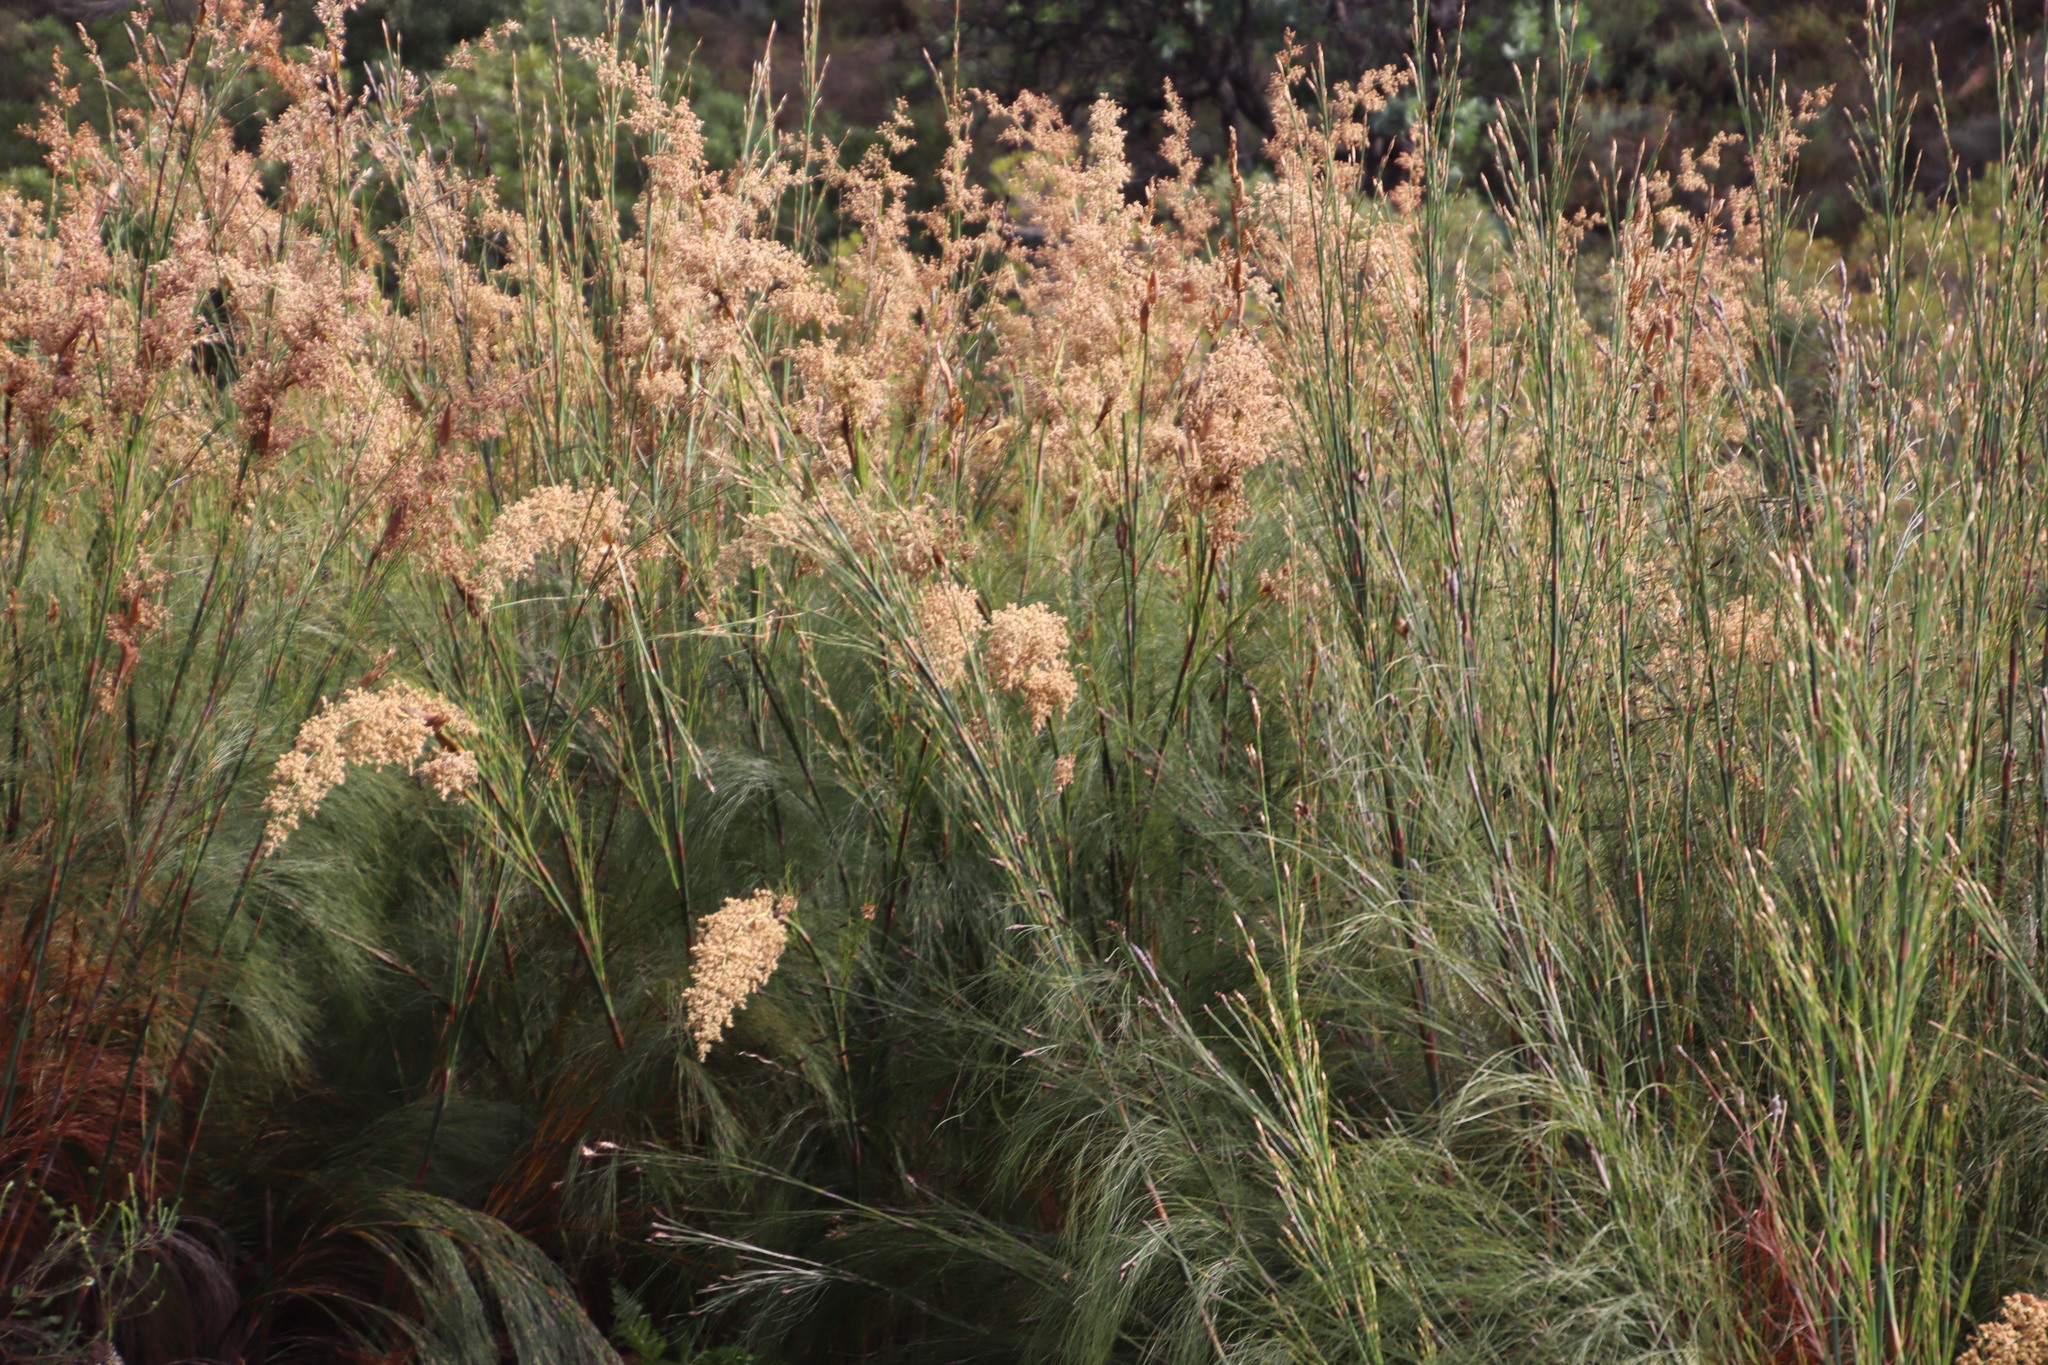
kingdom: Plantae
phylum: Tracheophyta
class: Liliopsida
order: Poales
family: Restionaceae
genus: Cannomois
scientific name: Cannomois grandis
